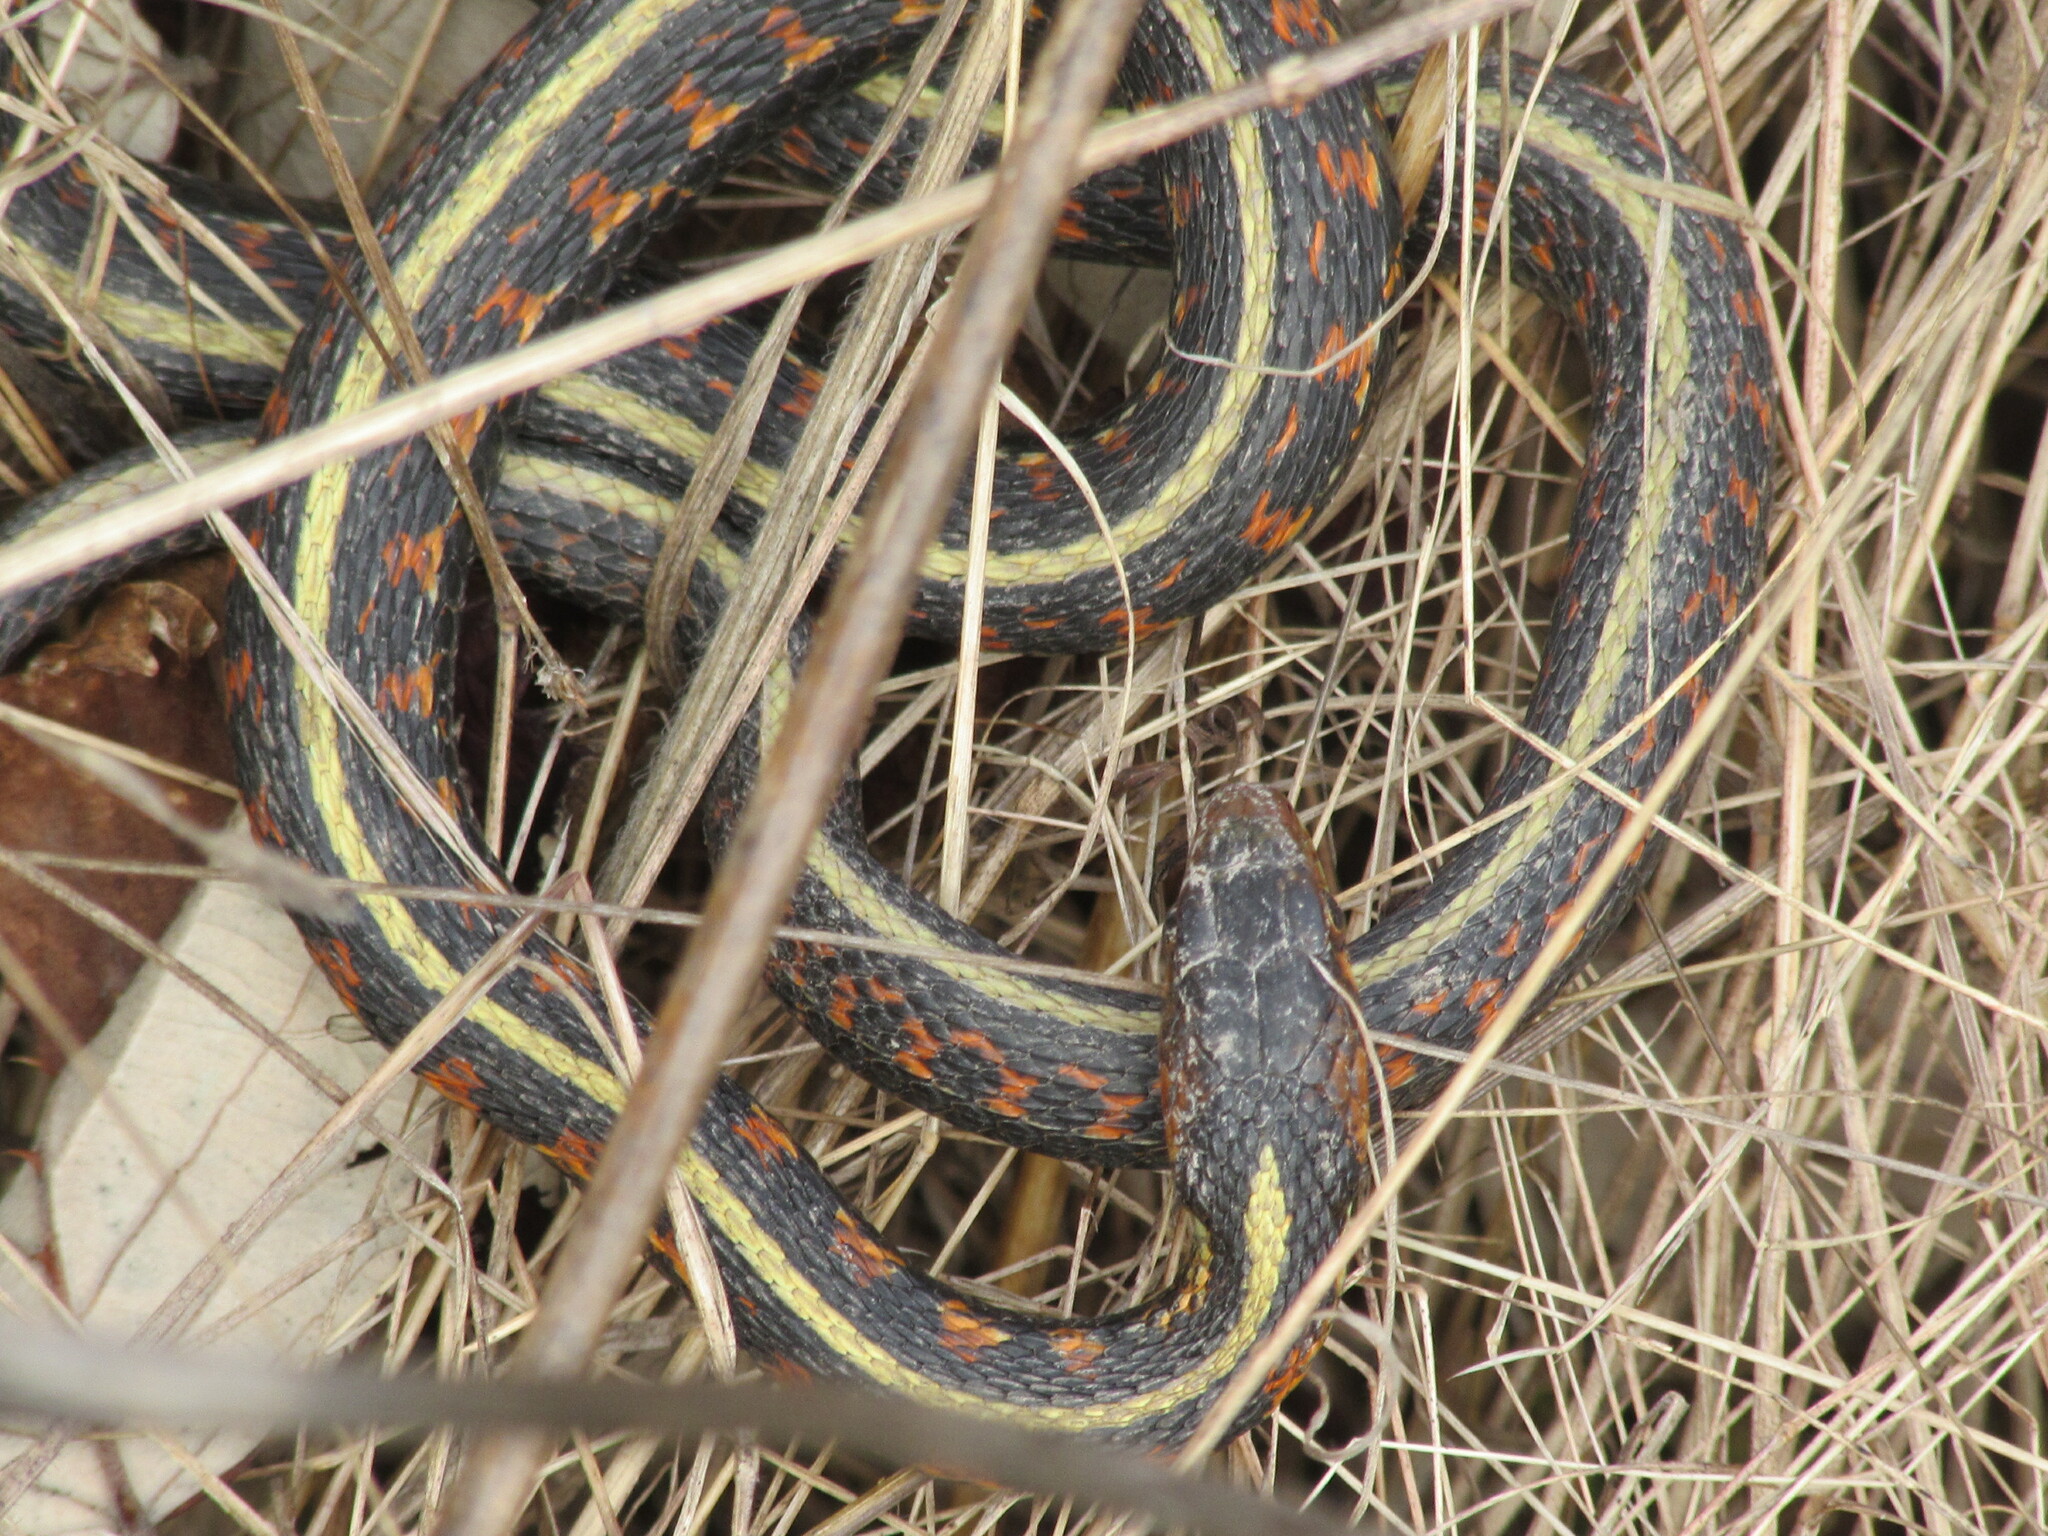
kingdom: Animalia
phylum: Chordata
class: Squamata
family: Colubridae
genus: Thamnophis
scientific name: Thamnophis sirtalis
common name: Common garter snake
